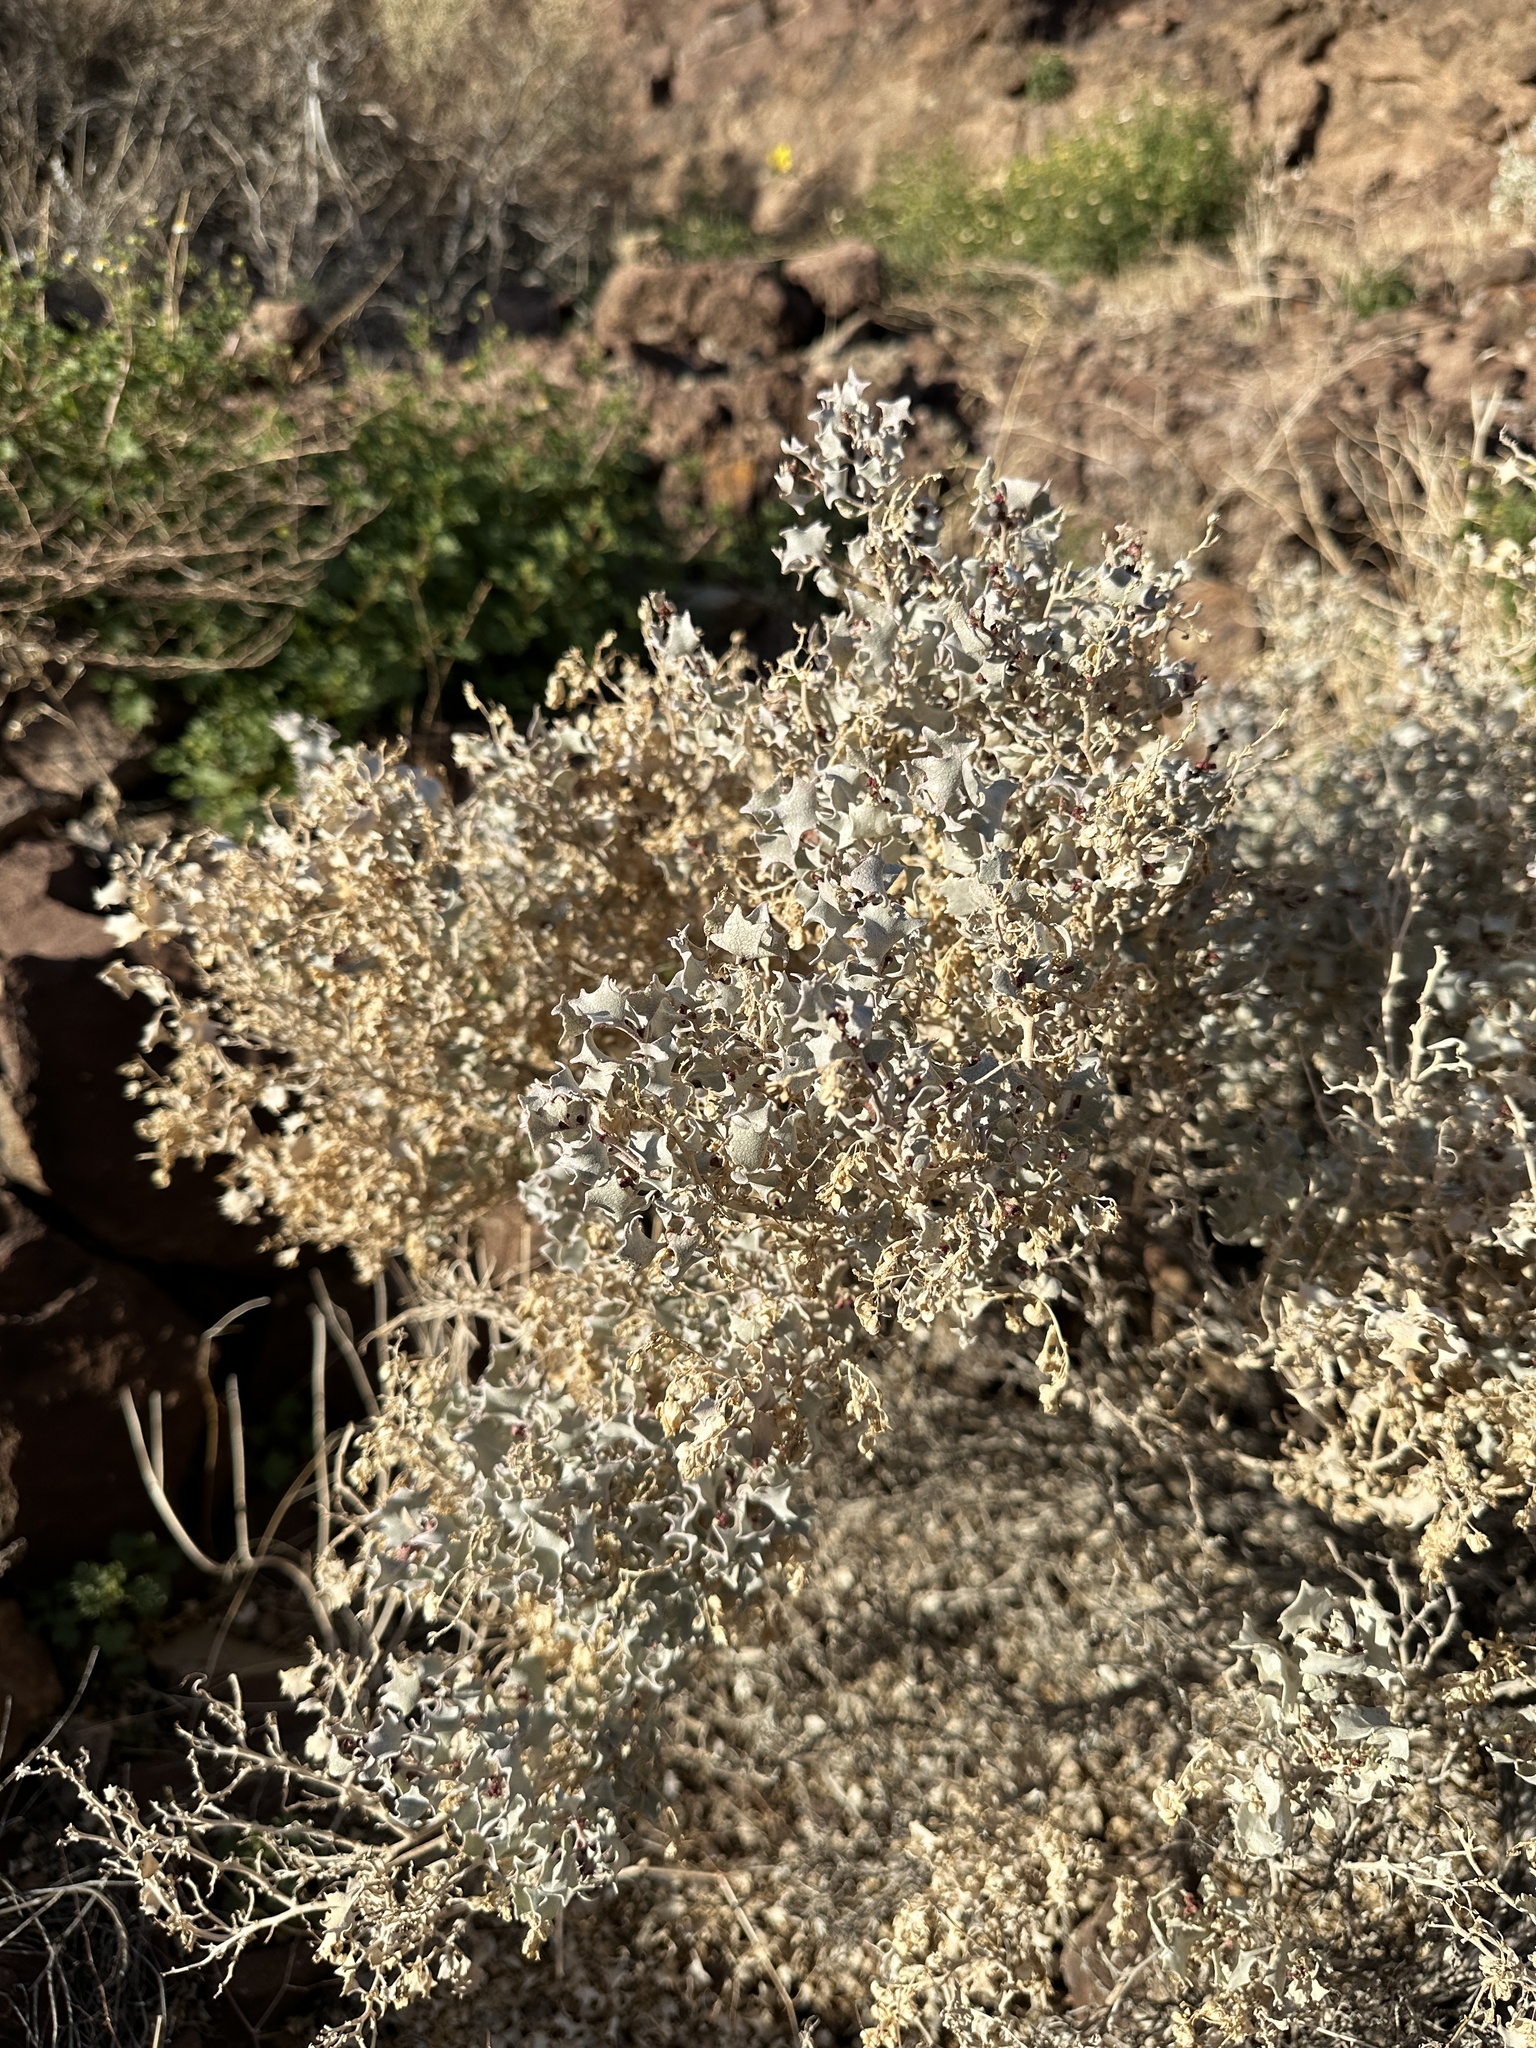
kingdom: Plantae
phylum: Tracheophyta
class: Magnoliopsida
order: Caryophyllales
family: Amaranthaceae
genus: Atriplex
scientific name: Atriplex hymenelytra
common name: Desert-holly
